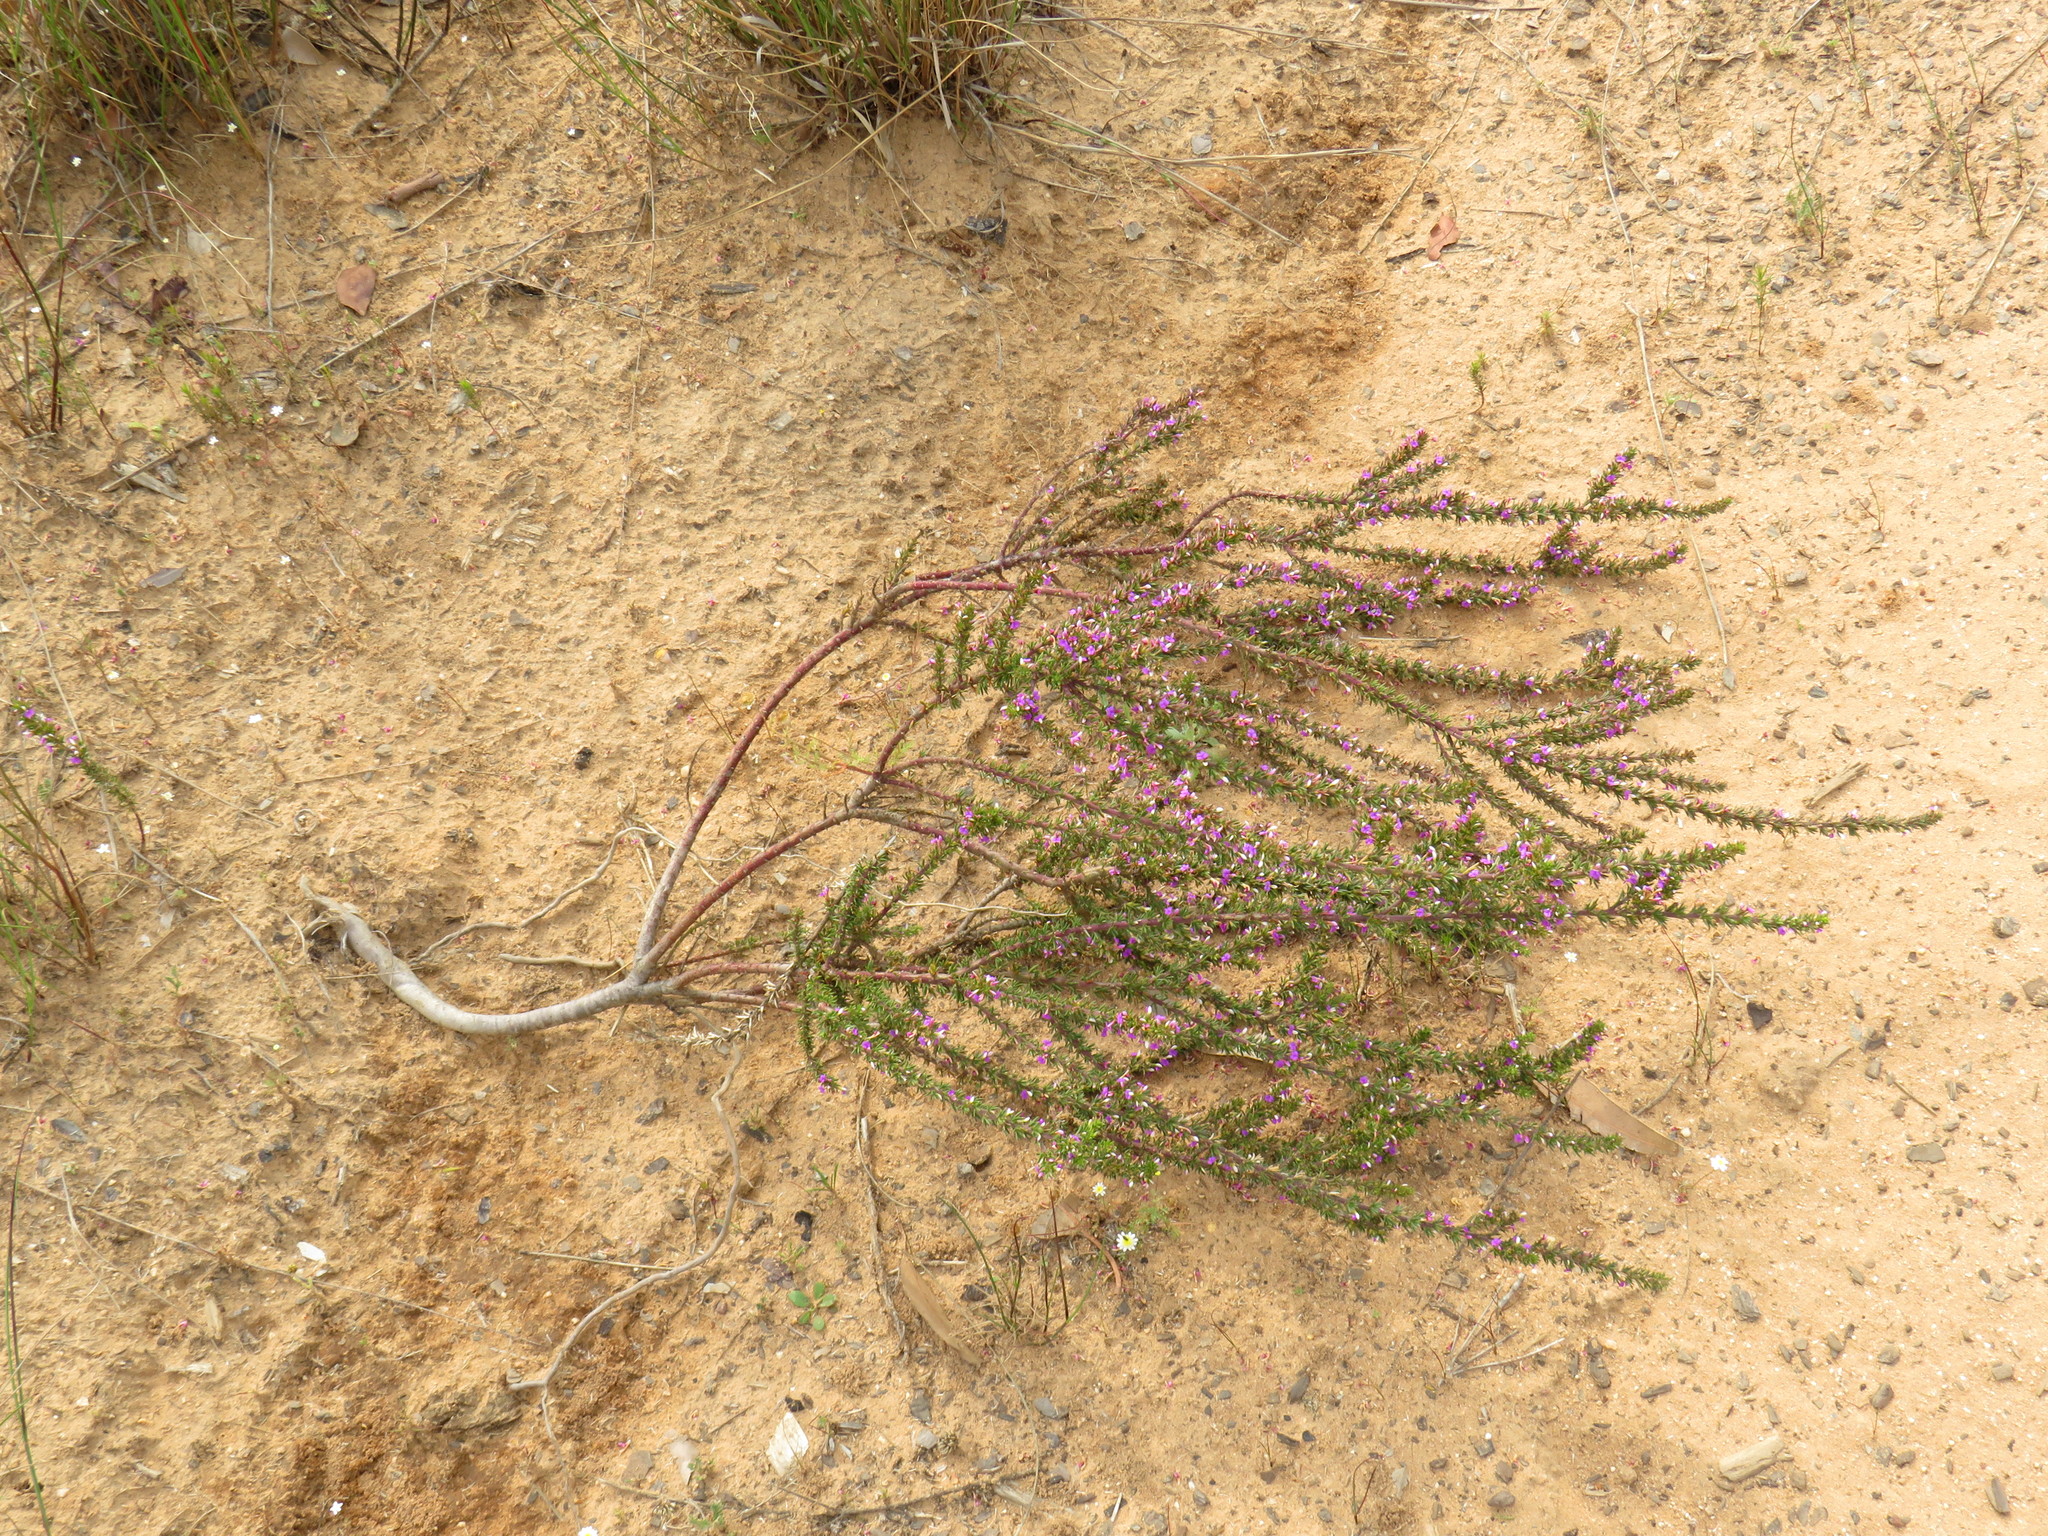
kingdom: Plantae
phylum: Tracheophyta
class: Magnoliopsida
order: Fabales
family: Polygalaceae
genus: Muraltia
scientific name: Muraltia heisteria
